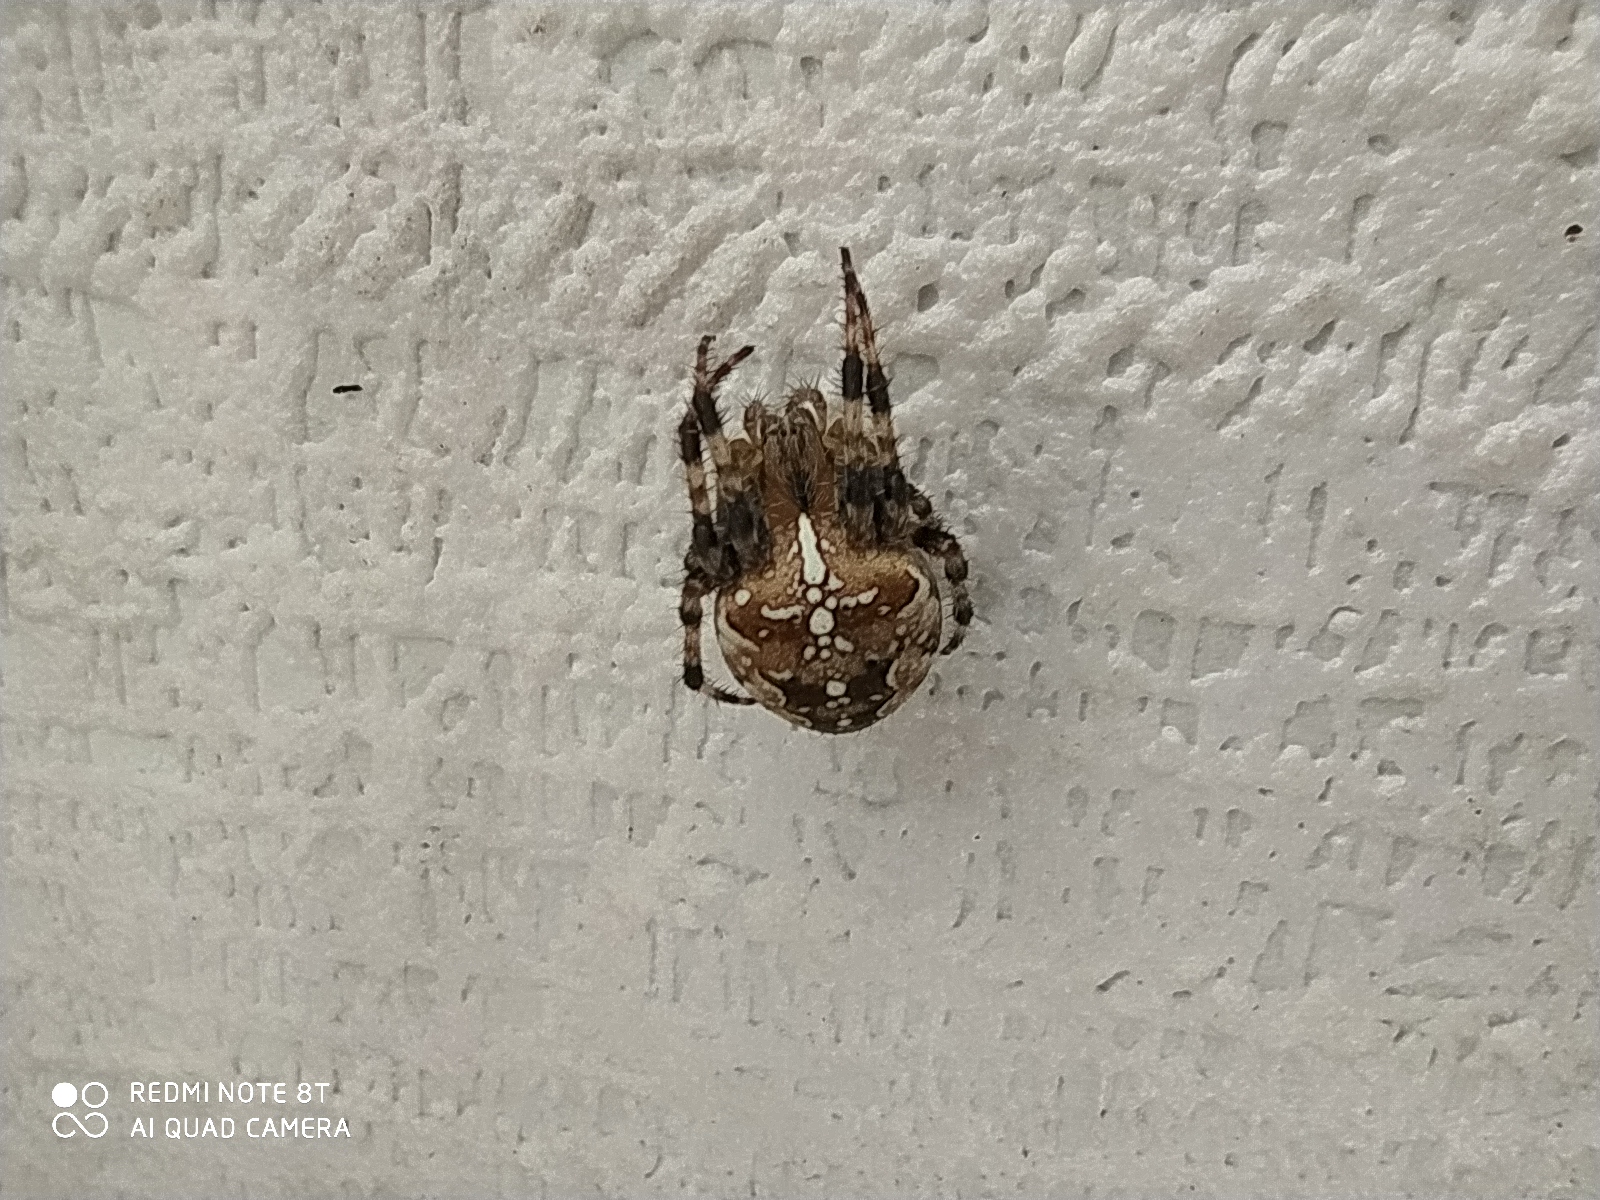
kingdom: Animalia
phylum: Arthropoda
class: Arachnida
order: Araneae
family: Araneidae
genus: Araneus
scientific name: Araneus diadematus
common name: Cross orbweaver
